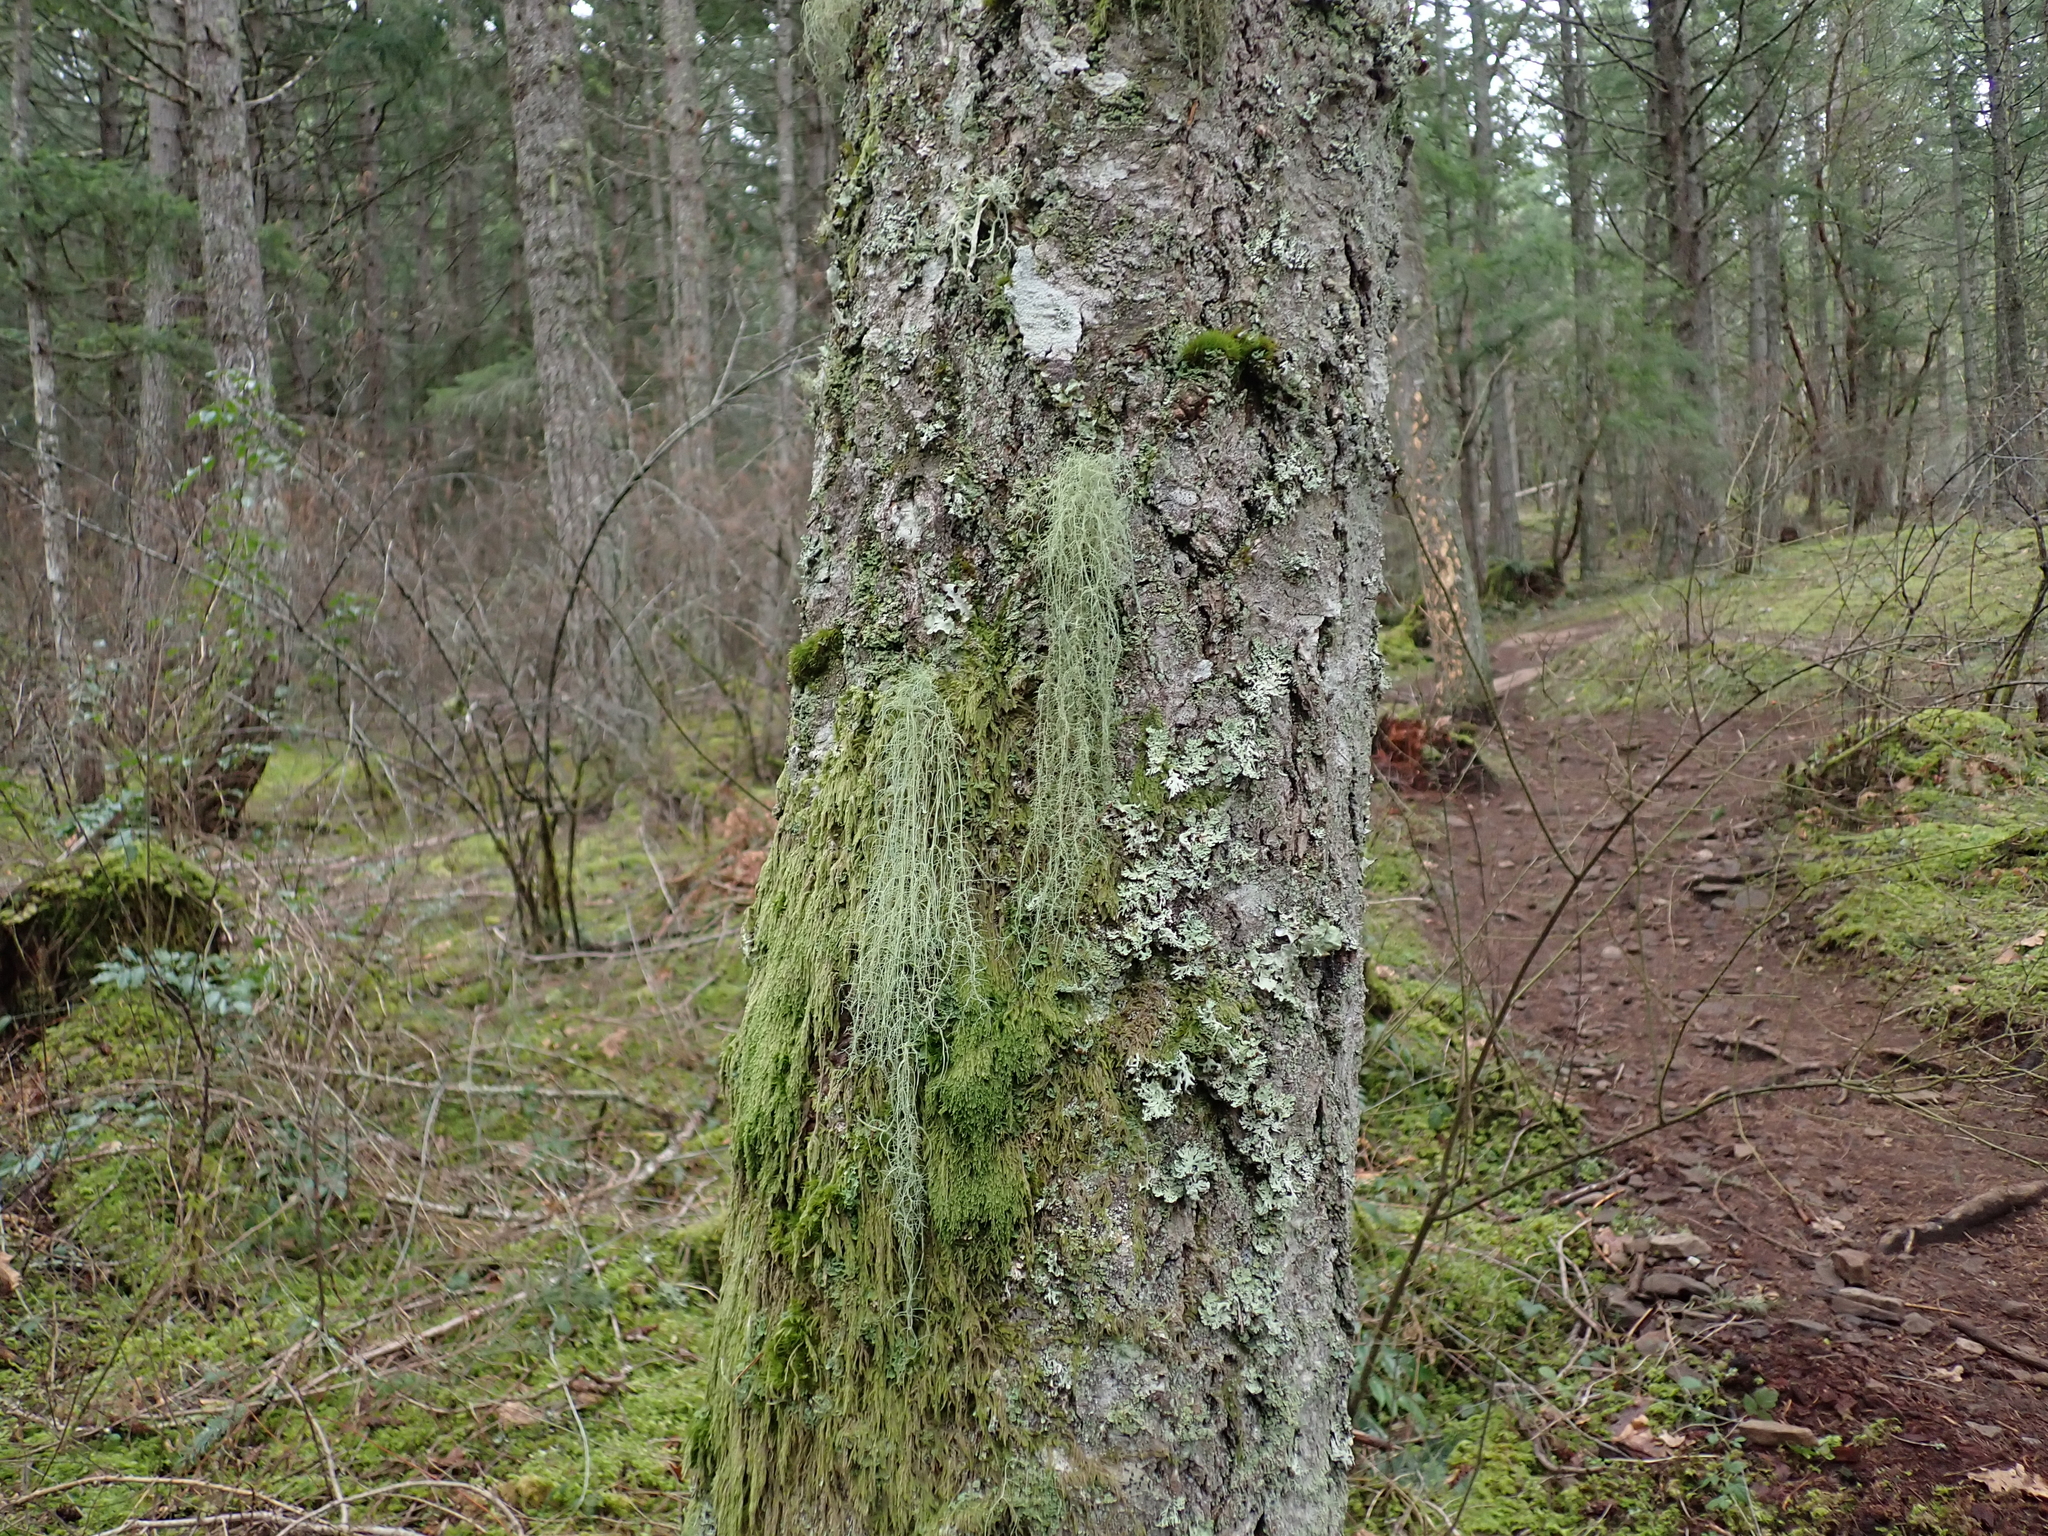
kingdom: Plantae
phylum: Bryophyta
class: Bryopsida
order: Hypnales
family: Pylaisiadelphaceae
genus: Trochophyllohypnum
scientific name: Trochophyllohypnum circinale
